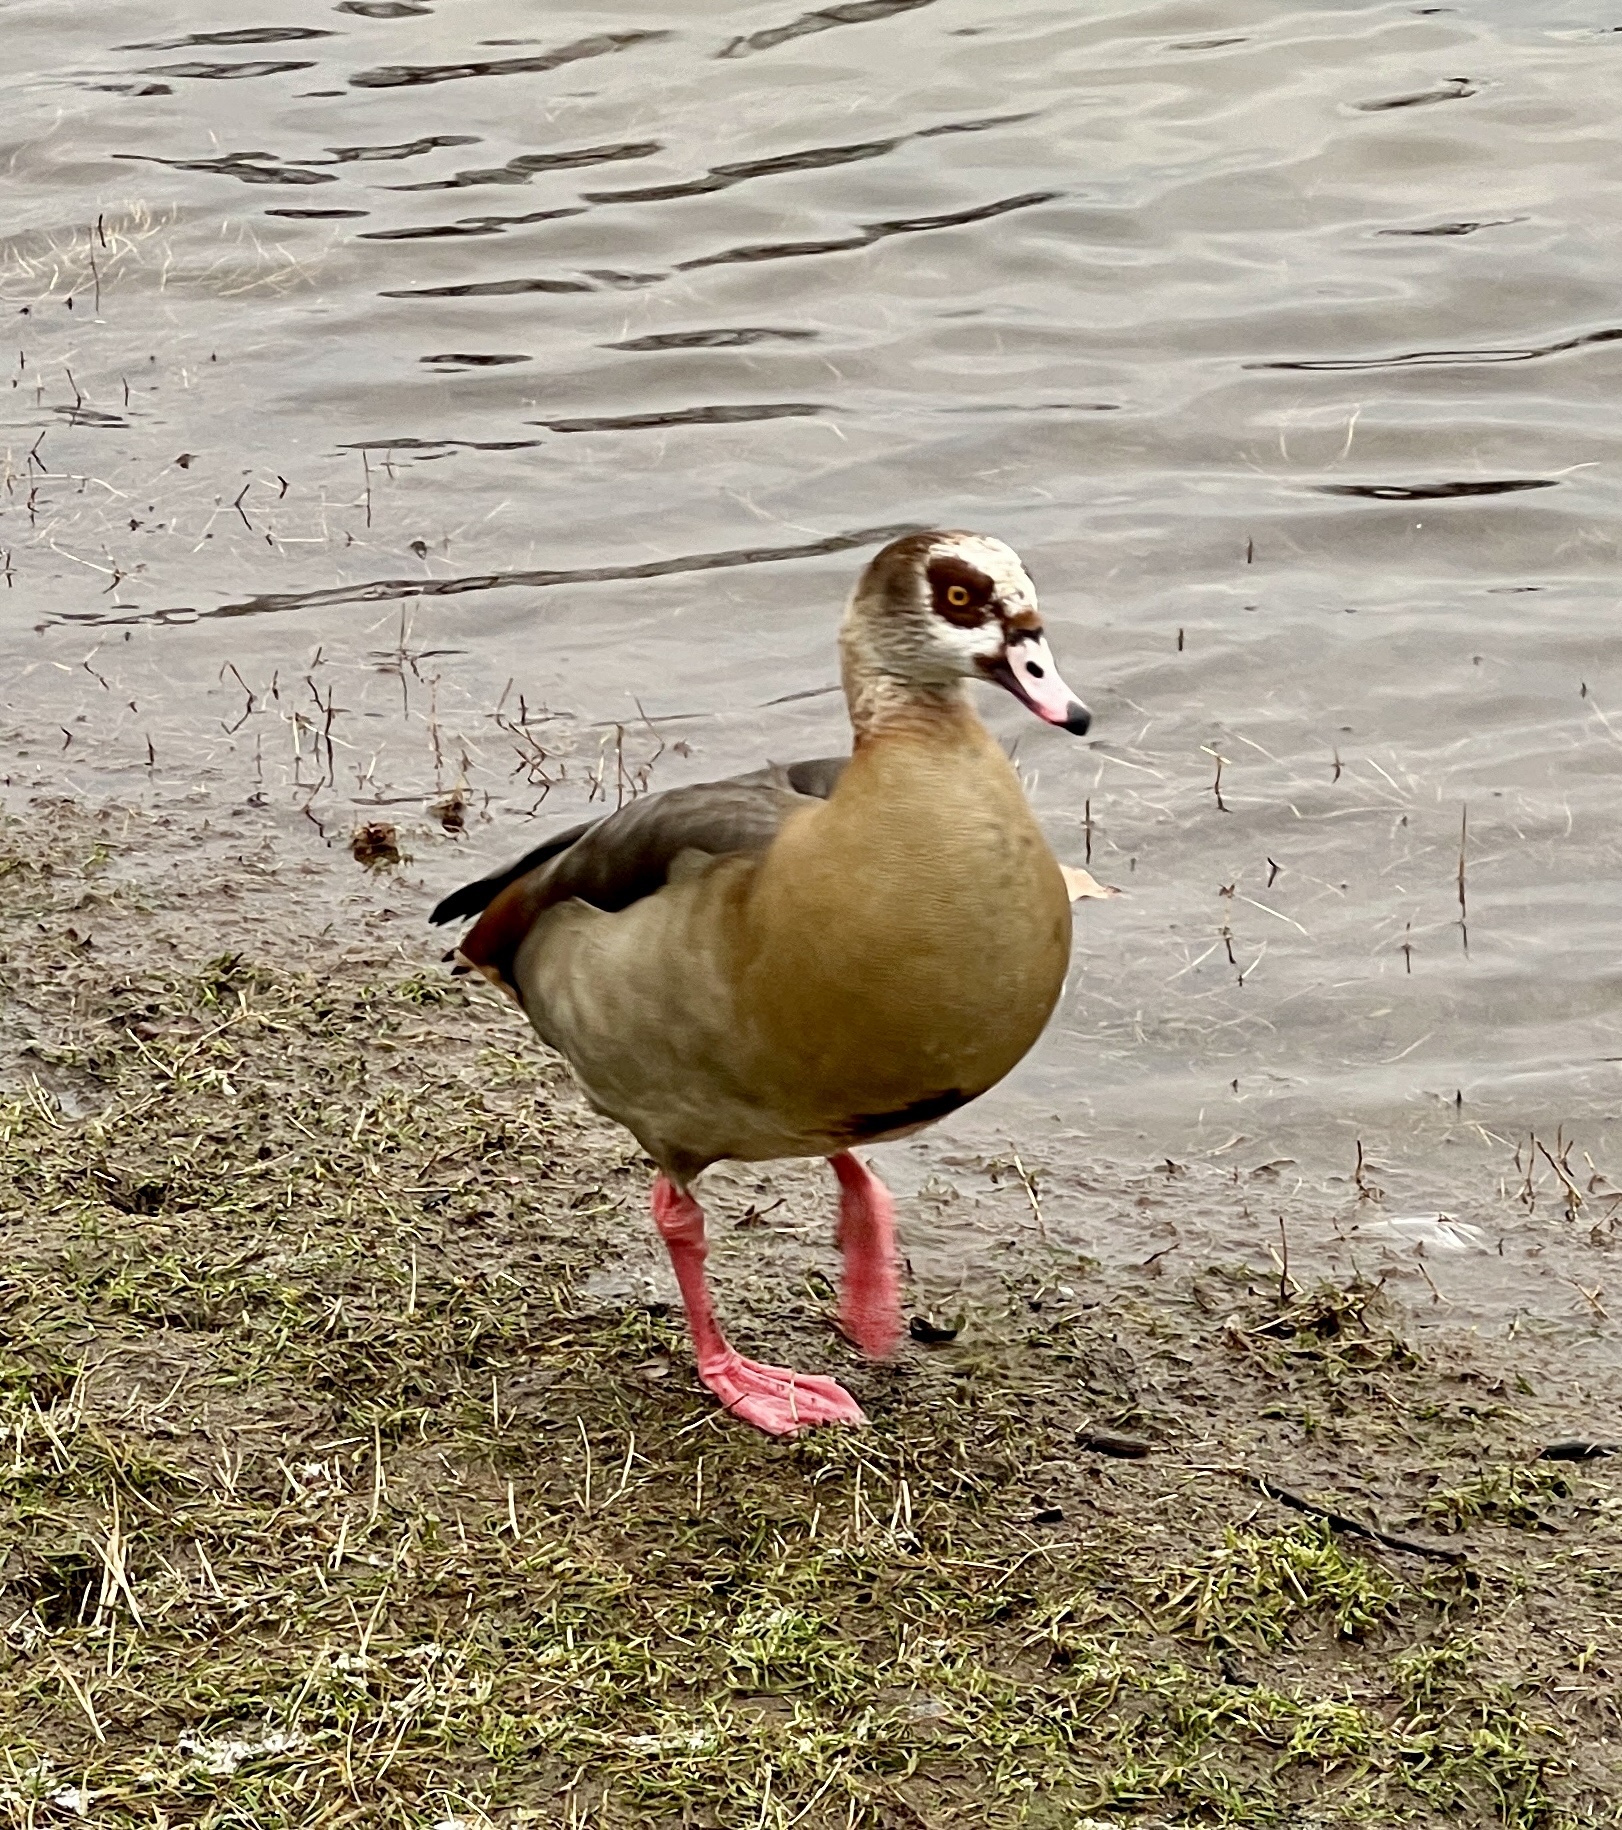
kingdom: Animalia
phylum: Chordata
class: Aves
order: Anseriformes
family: Anatidae
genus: Alopochen
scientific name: Alopochen aegyptiaca
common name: Egyptian goose
